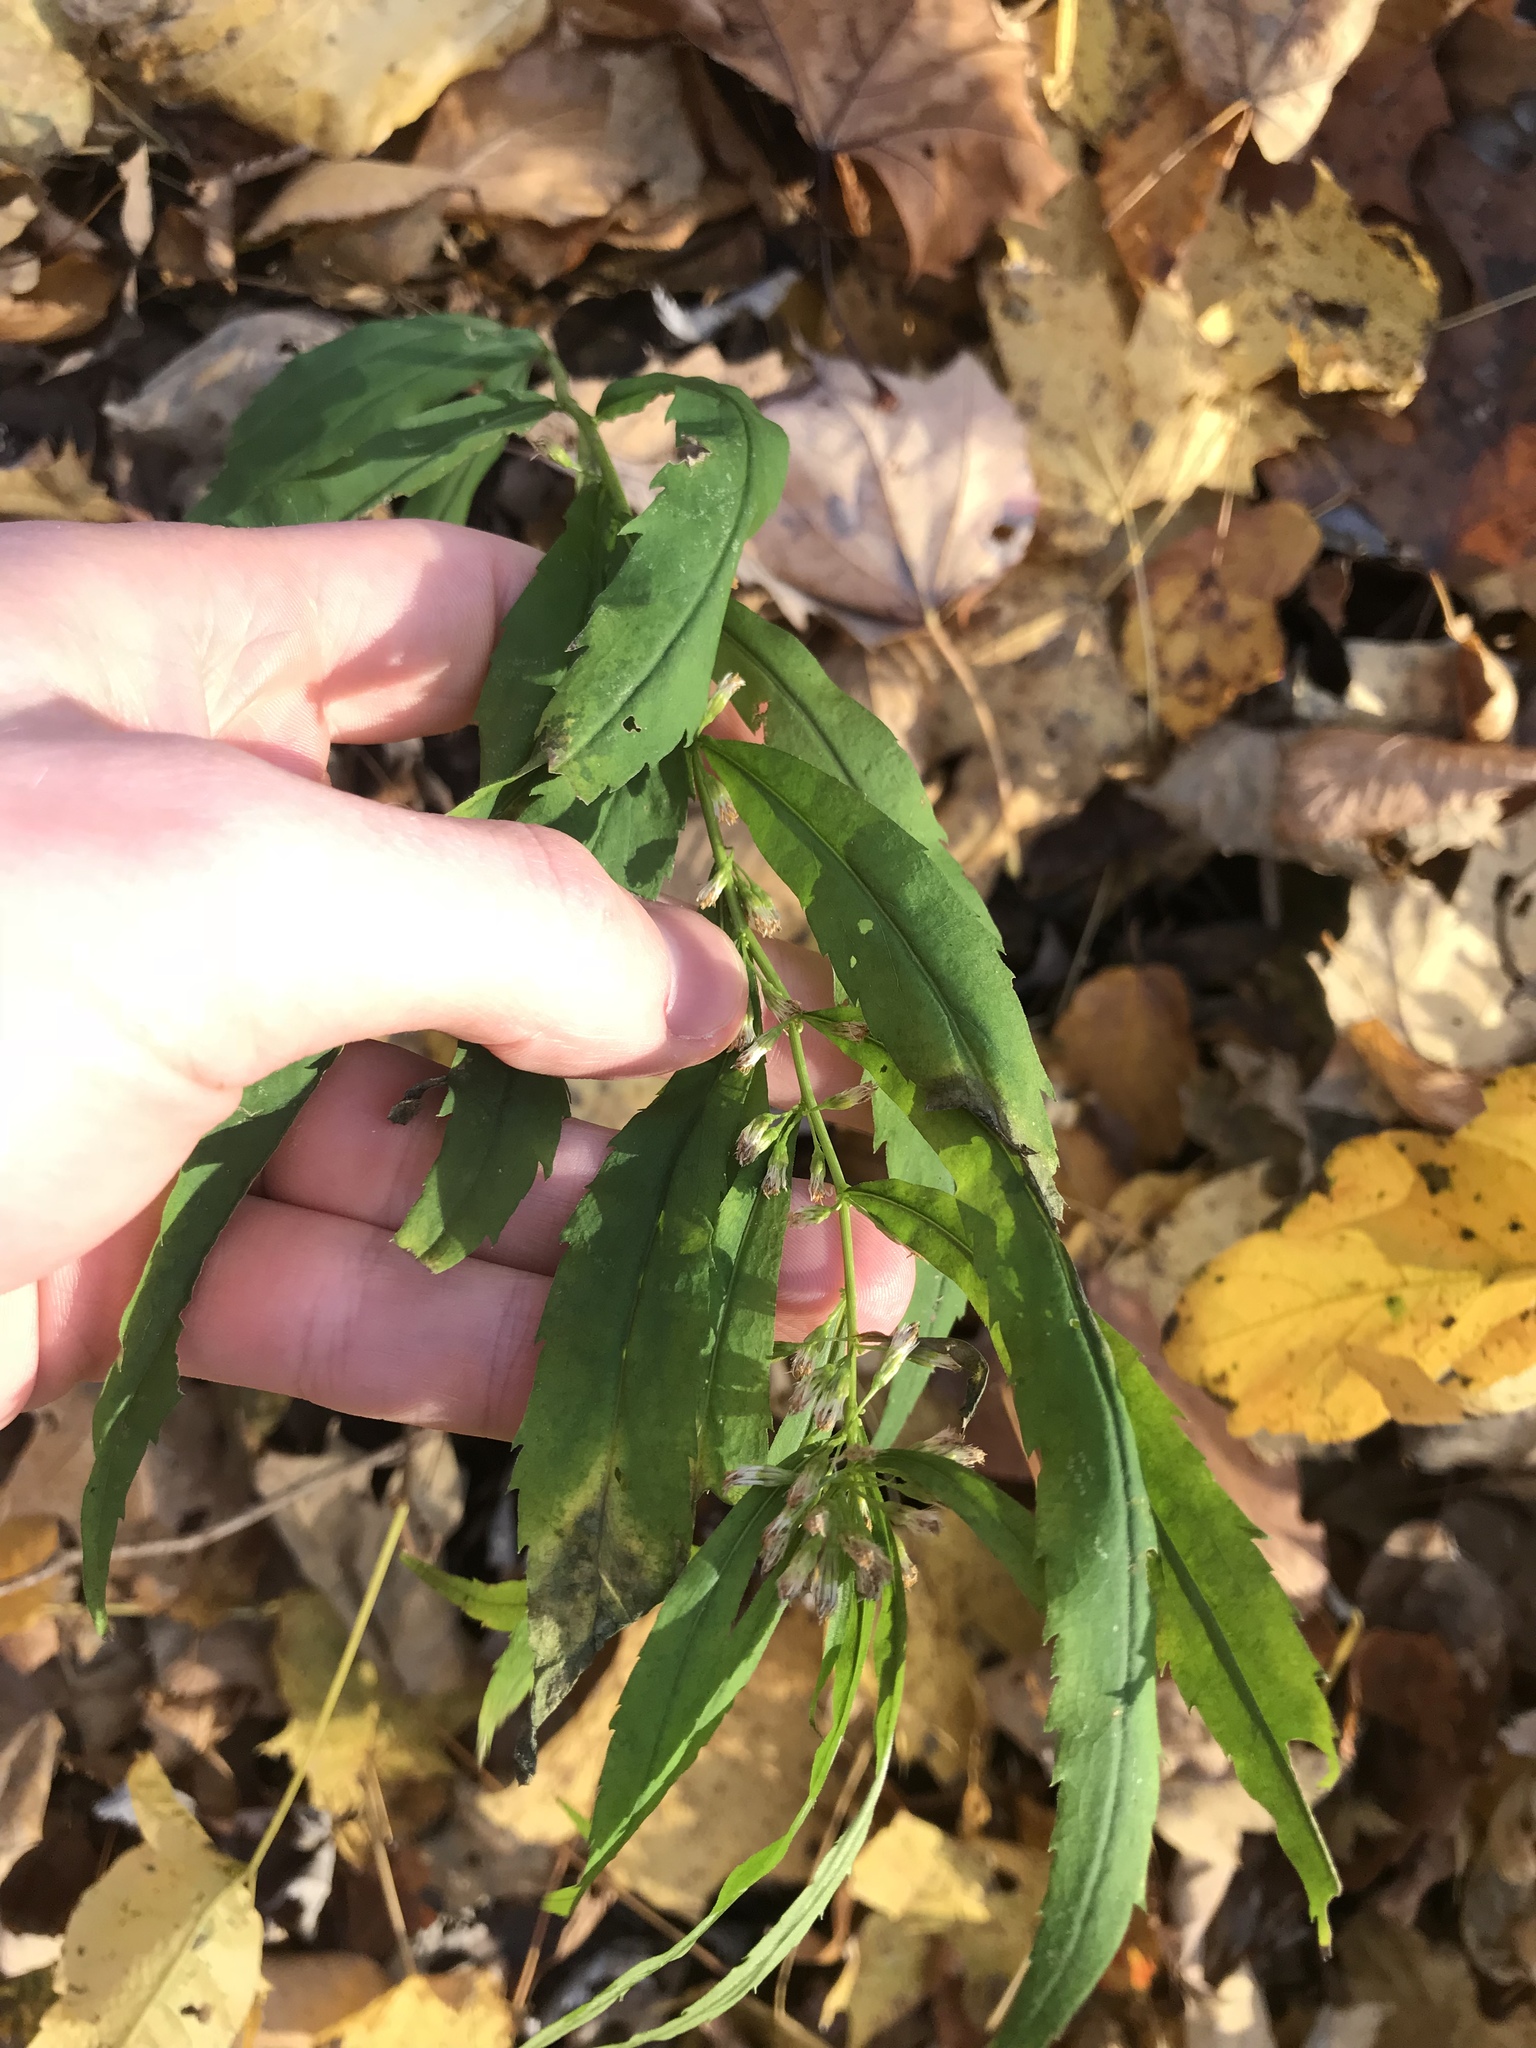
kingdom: Plantae
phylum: Tracheophyta
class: Magnoliopsida
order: Asterales
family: Asteraceae
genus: Solidago
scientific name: Solidago caesia
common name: Woodland goldenrod
